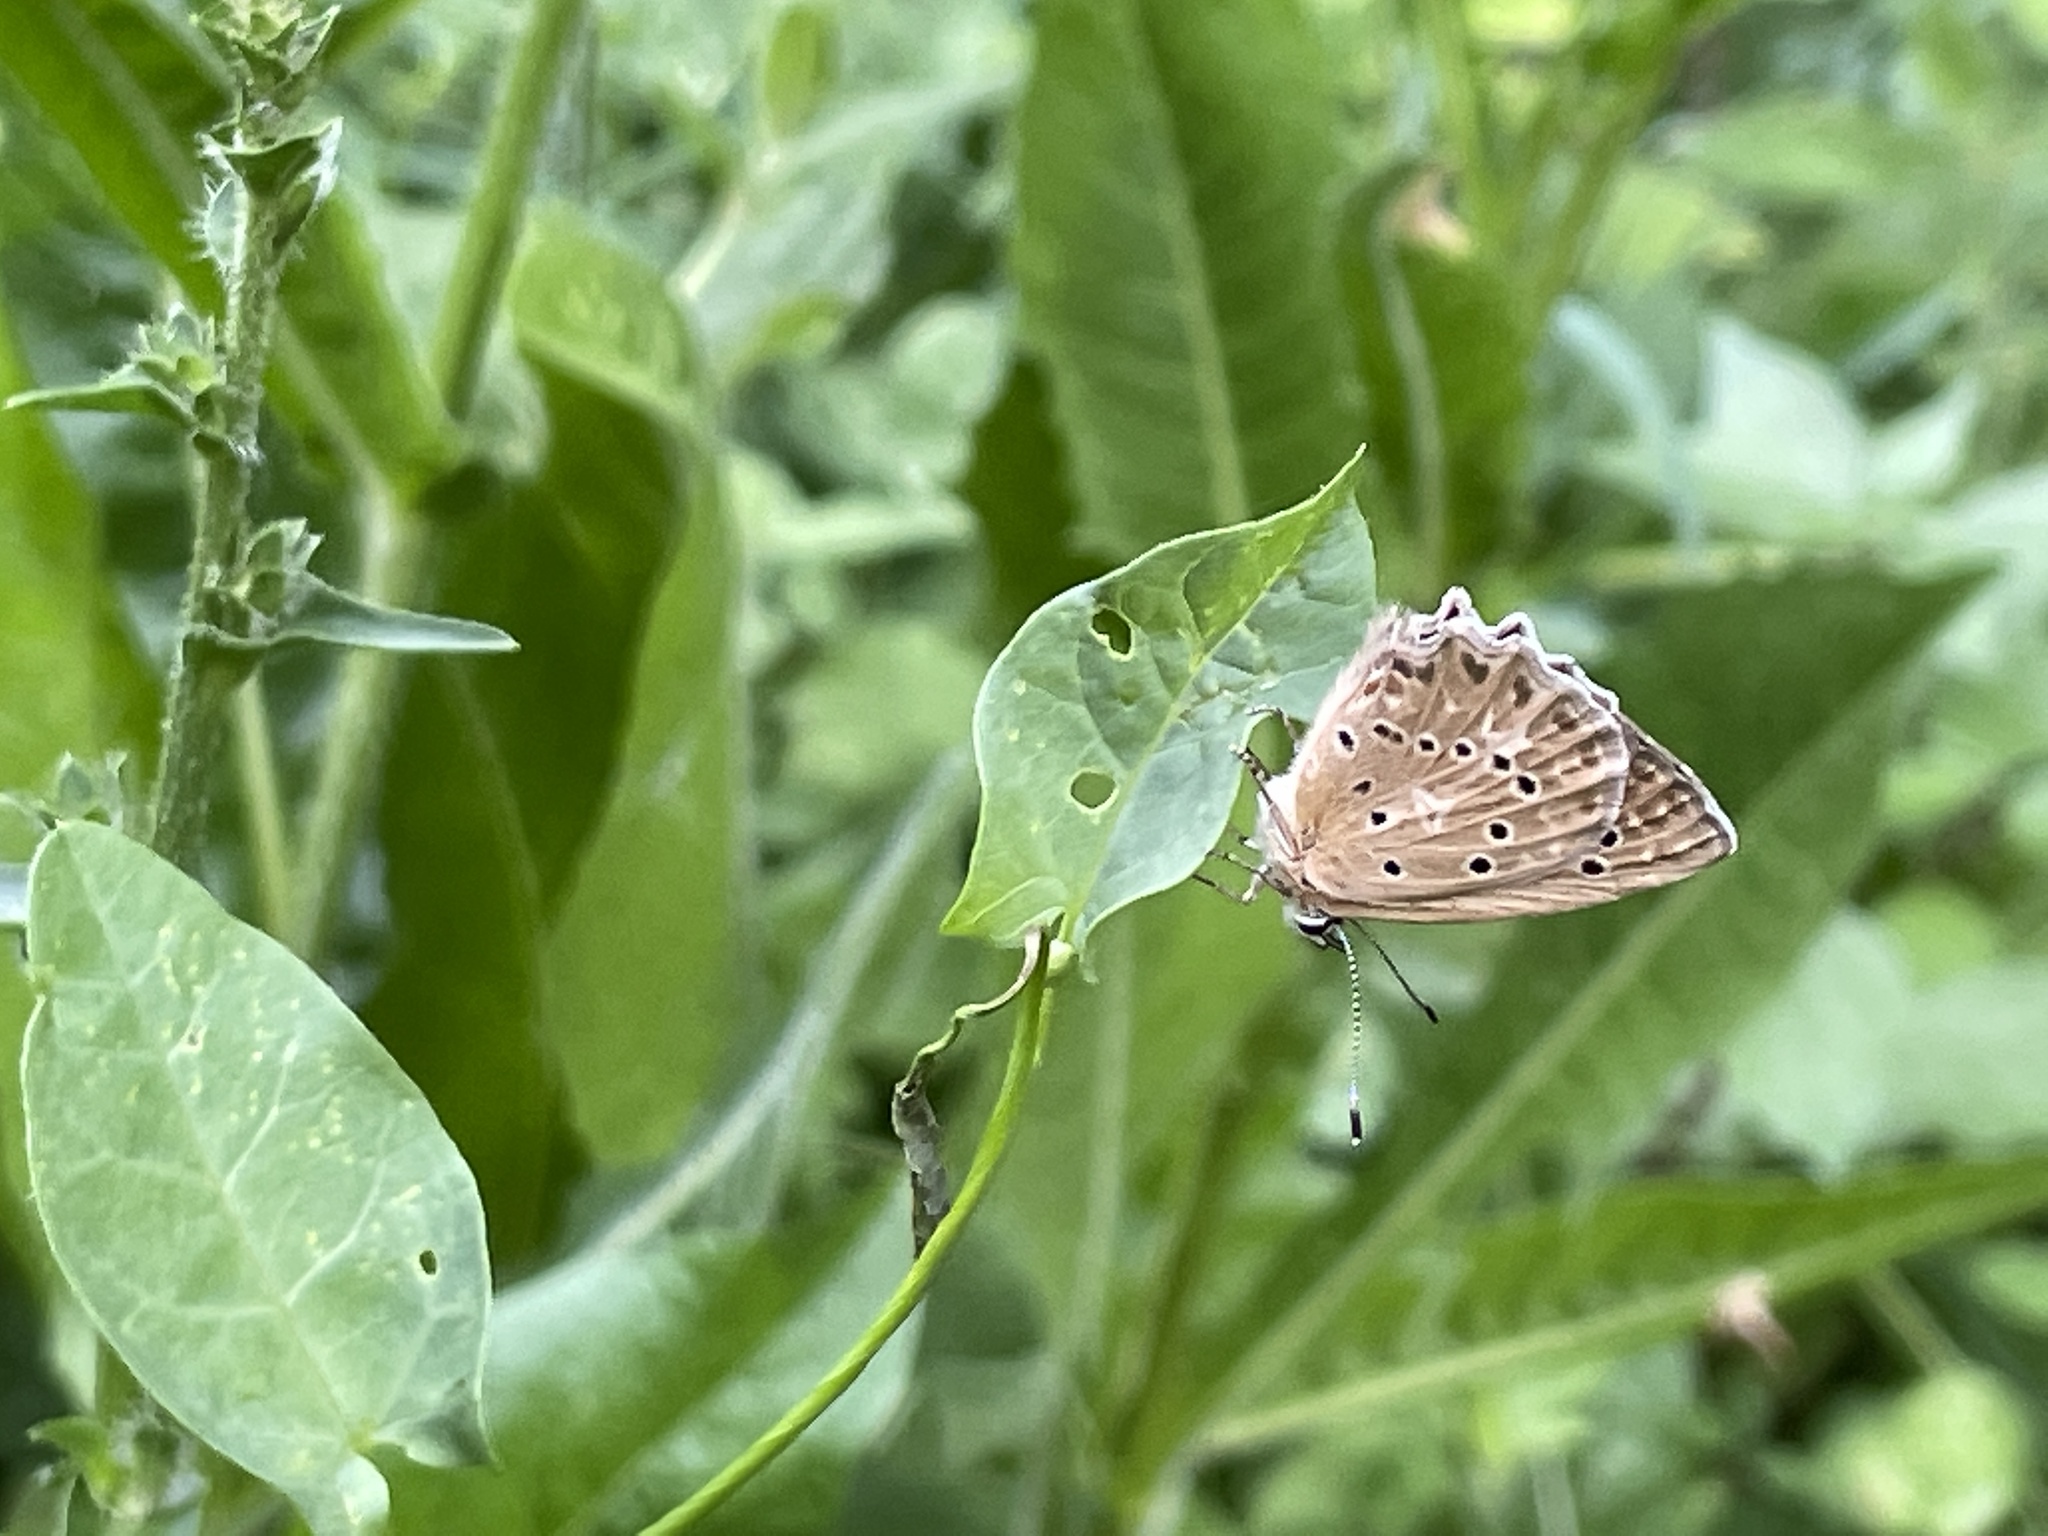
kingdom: Animalia
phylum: Arthropoda
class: Insecta
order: Lepidoptera
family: Lycaenidae
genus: Polyommatus
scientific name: Polyommatus daphnis
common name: Meleager's blue
